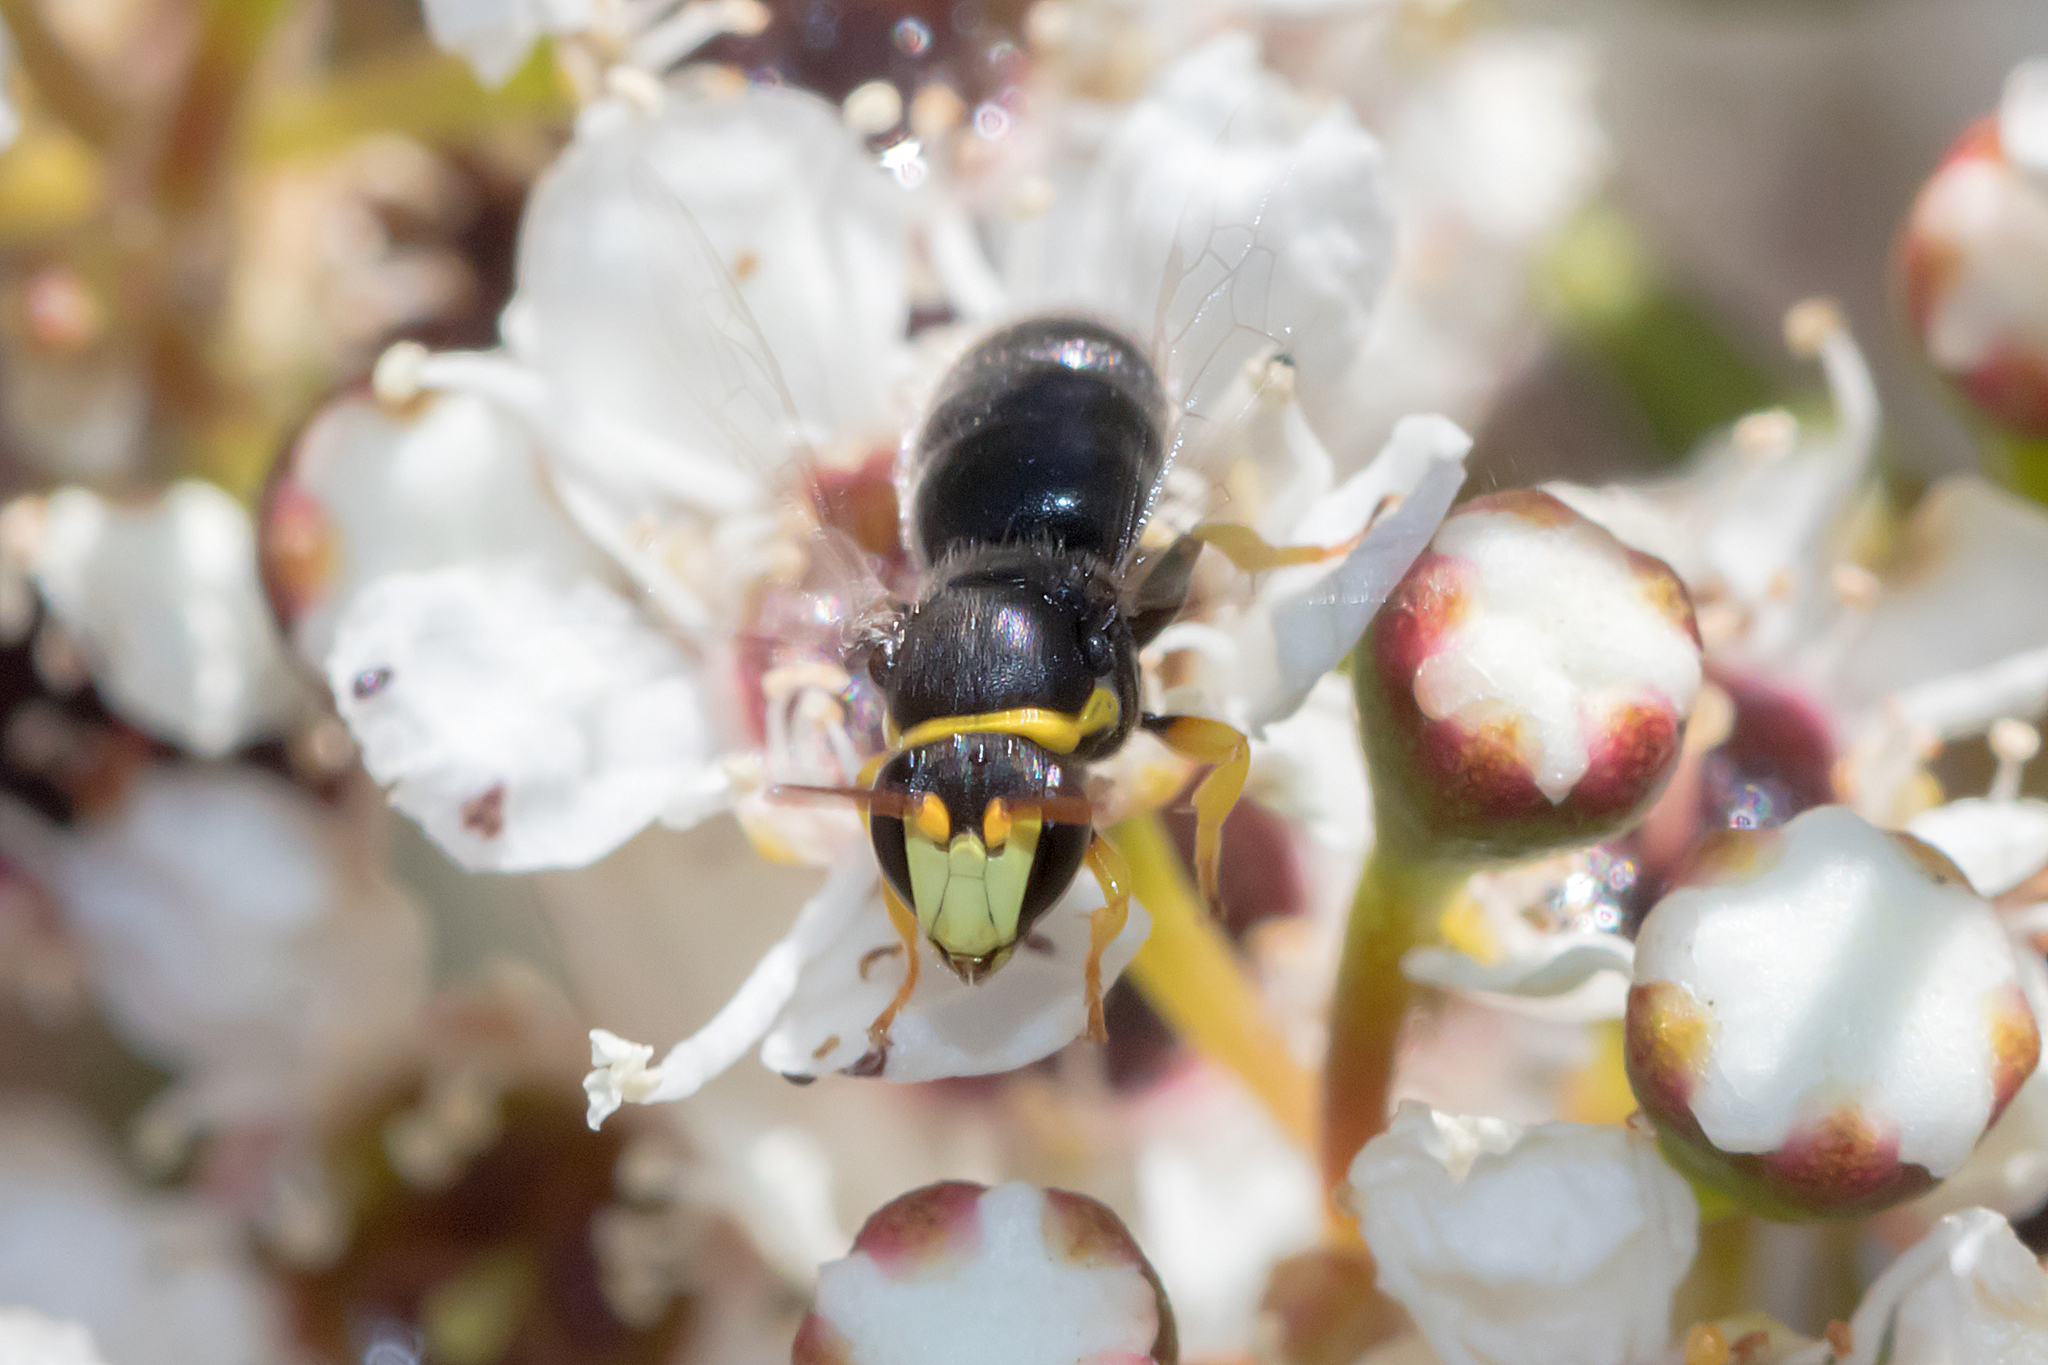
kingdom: Animalia
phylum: Arthropoda
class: Insecta
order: Hymenoptera
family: Colletidae
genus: Hylaeus
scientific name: Hylaeus euxanthus
